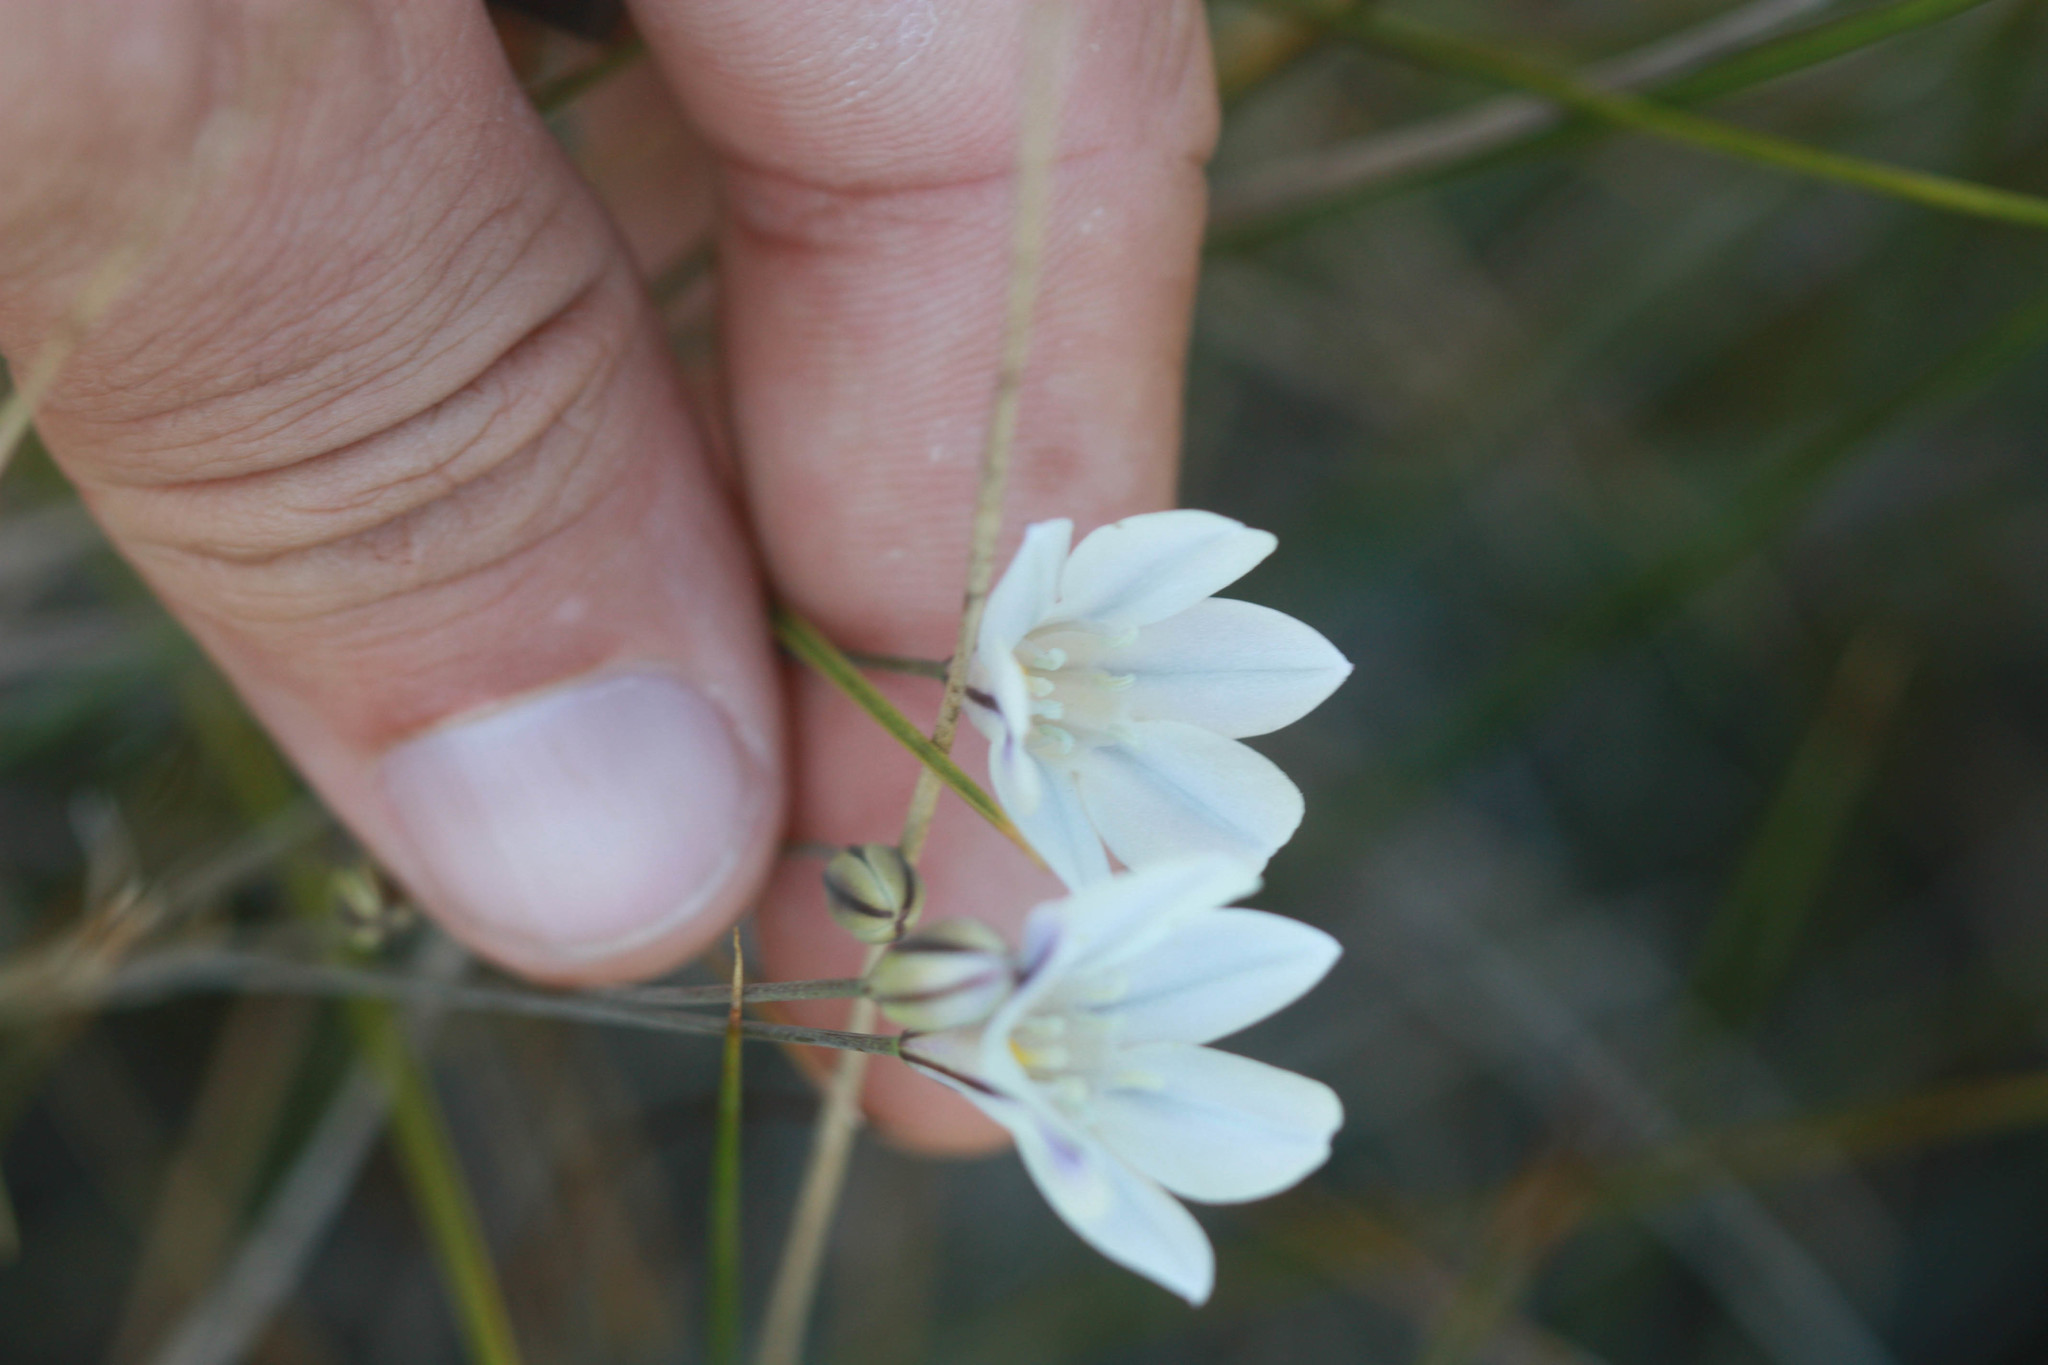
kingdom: Plantae
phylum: Tracheophyta
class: Liliopsida
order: Asparagales
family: Asparagaceae
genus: Triteleia
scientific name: Triteleia peduncularis
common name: Long-ray brodiaea
